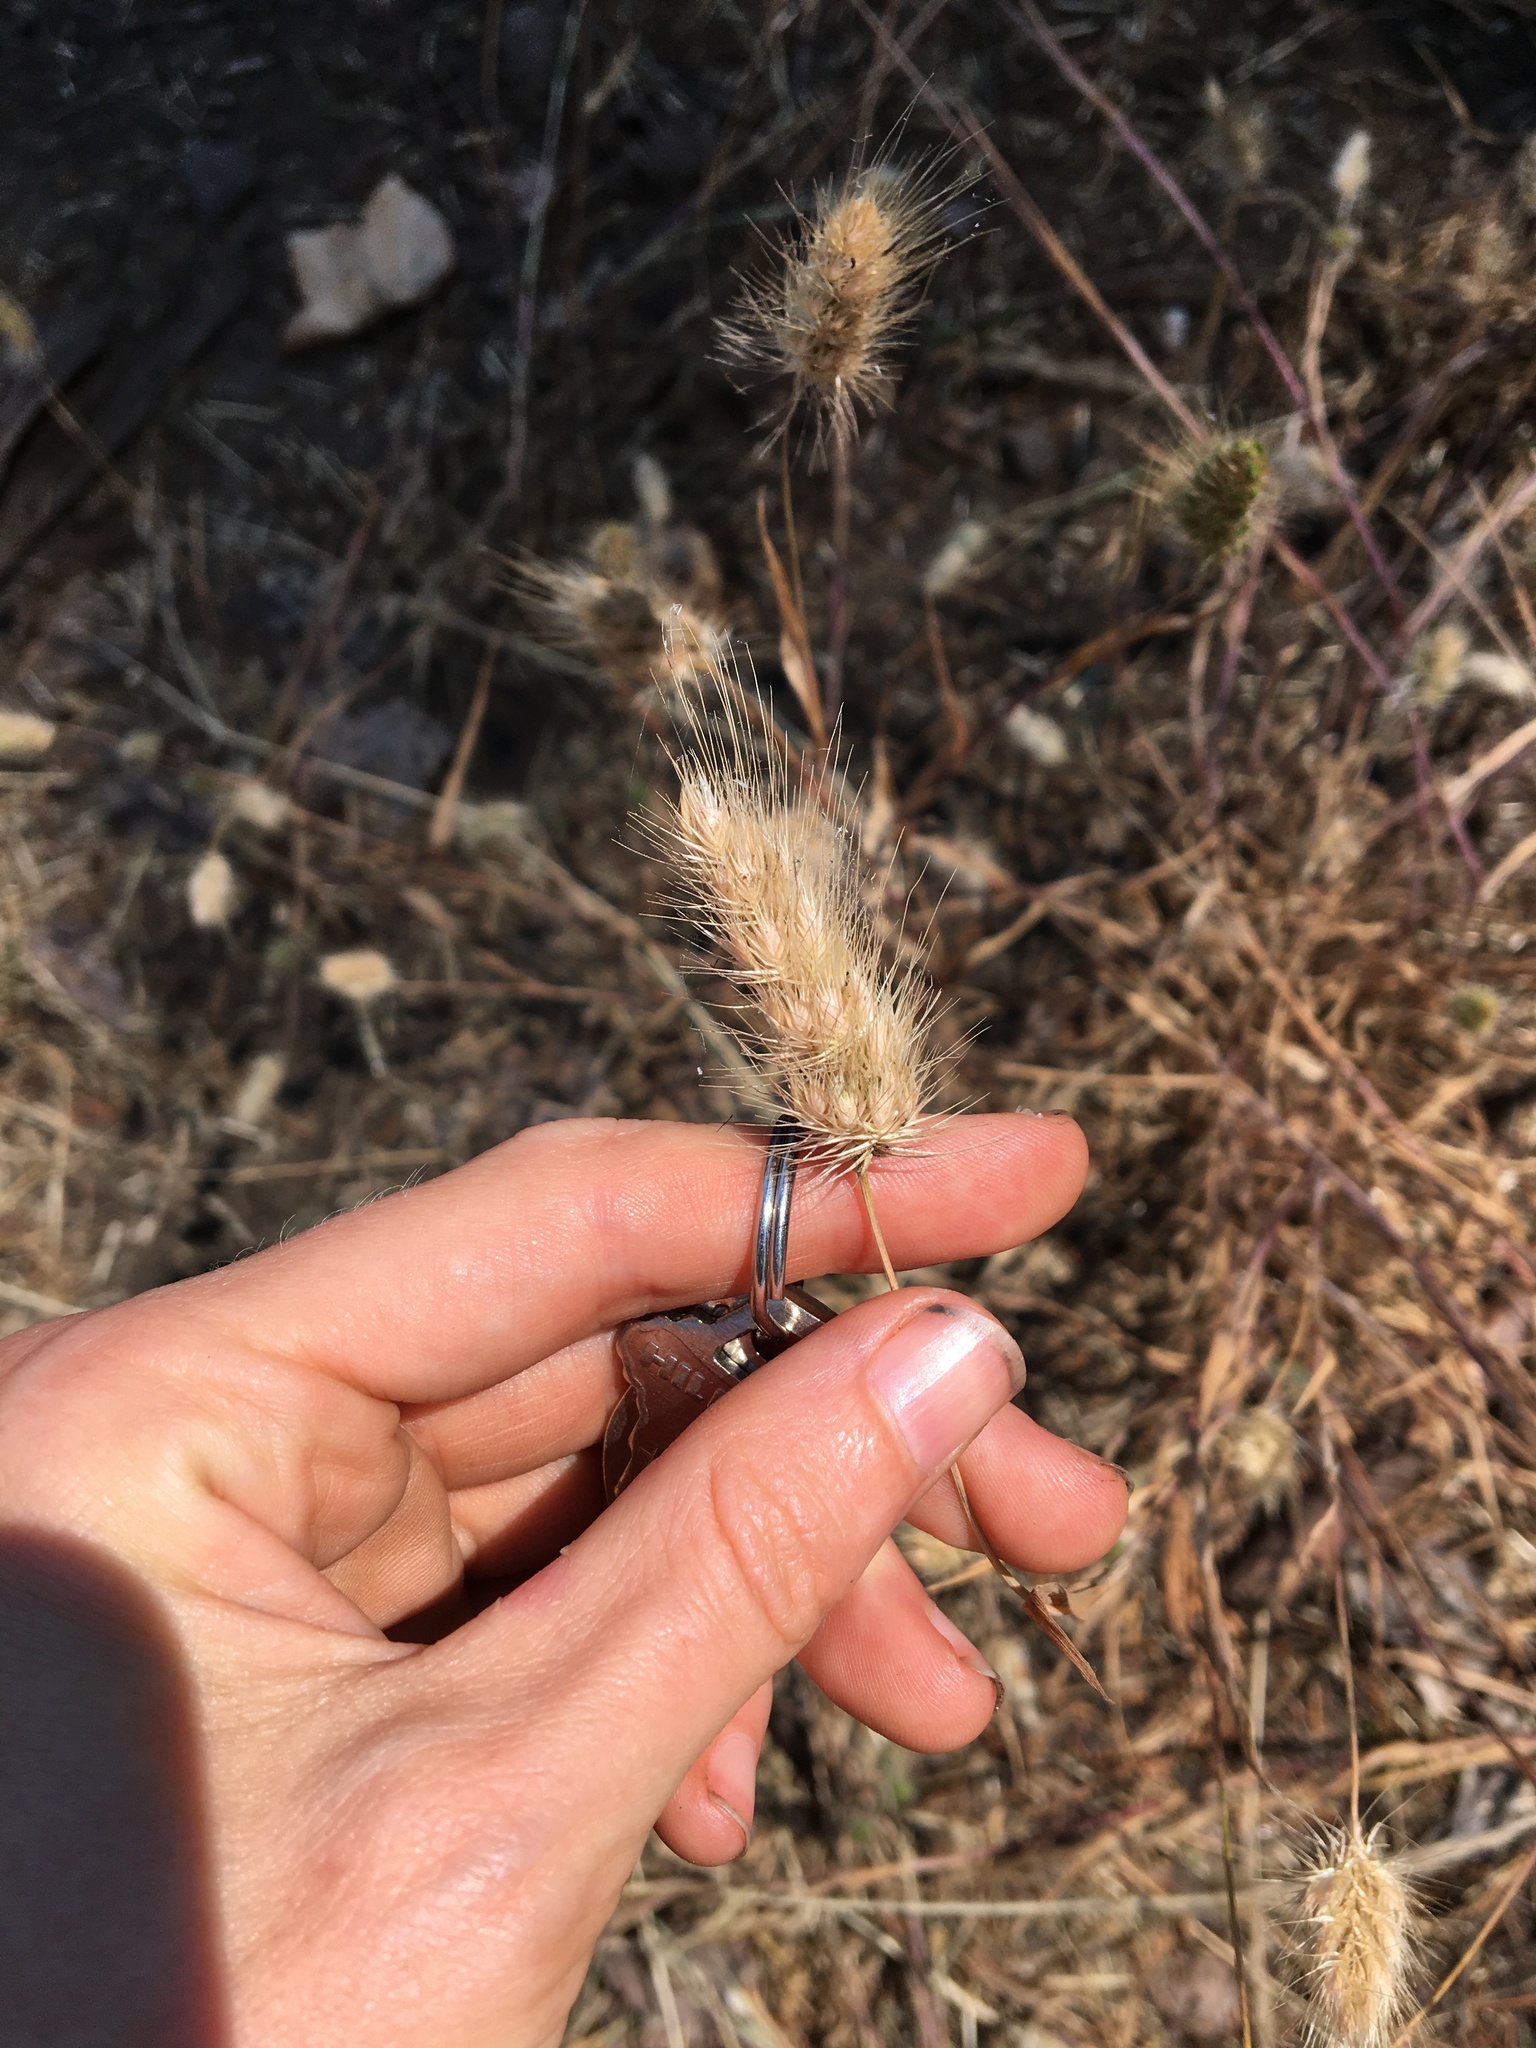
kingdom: Plantae
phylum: Tracheophyta
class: Liliopsida
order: Poales
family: Poaceae
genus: Cynosurus
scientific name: Cynosurus echinatus
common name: Rough dog's-tail
